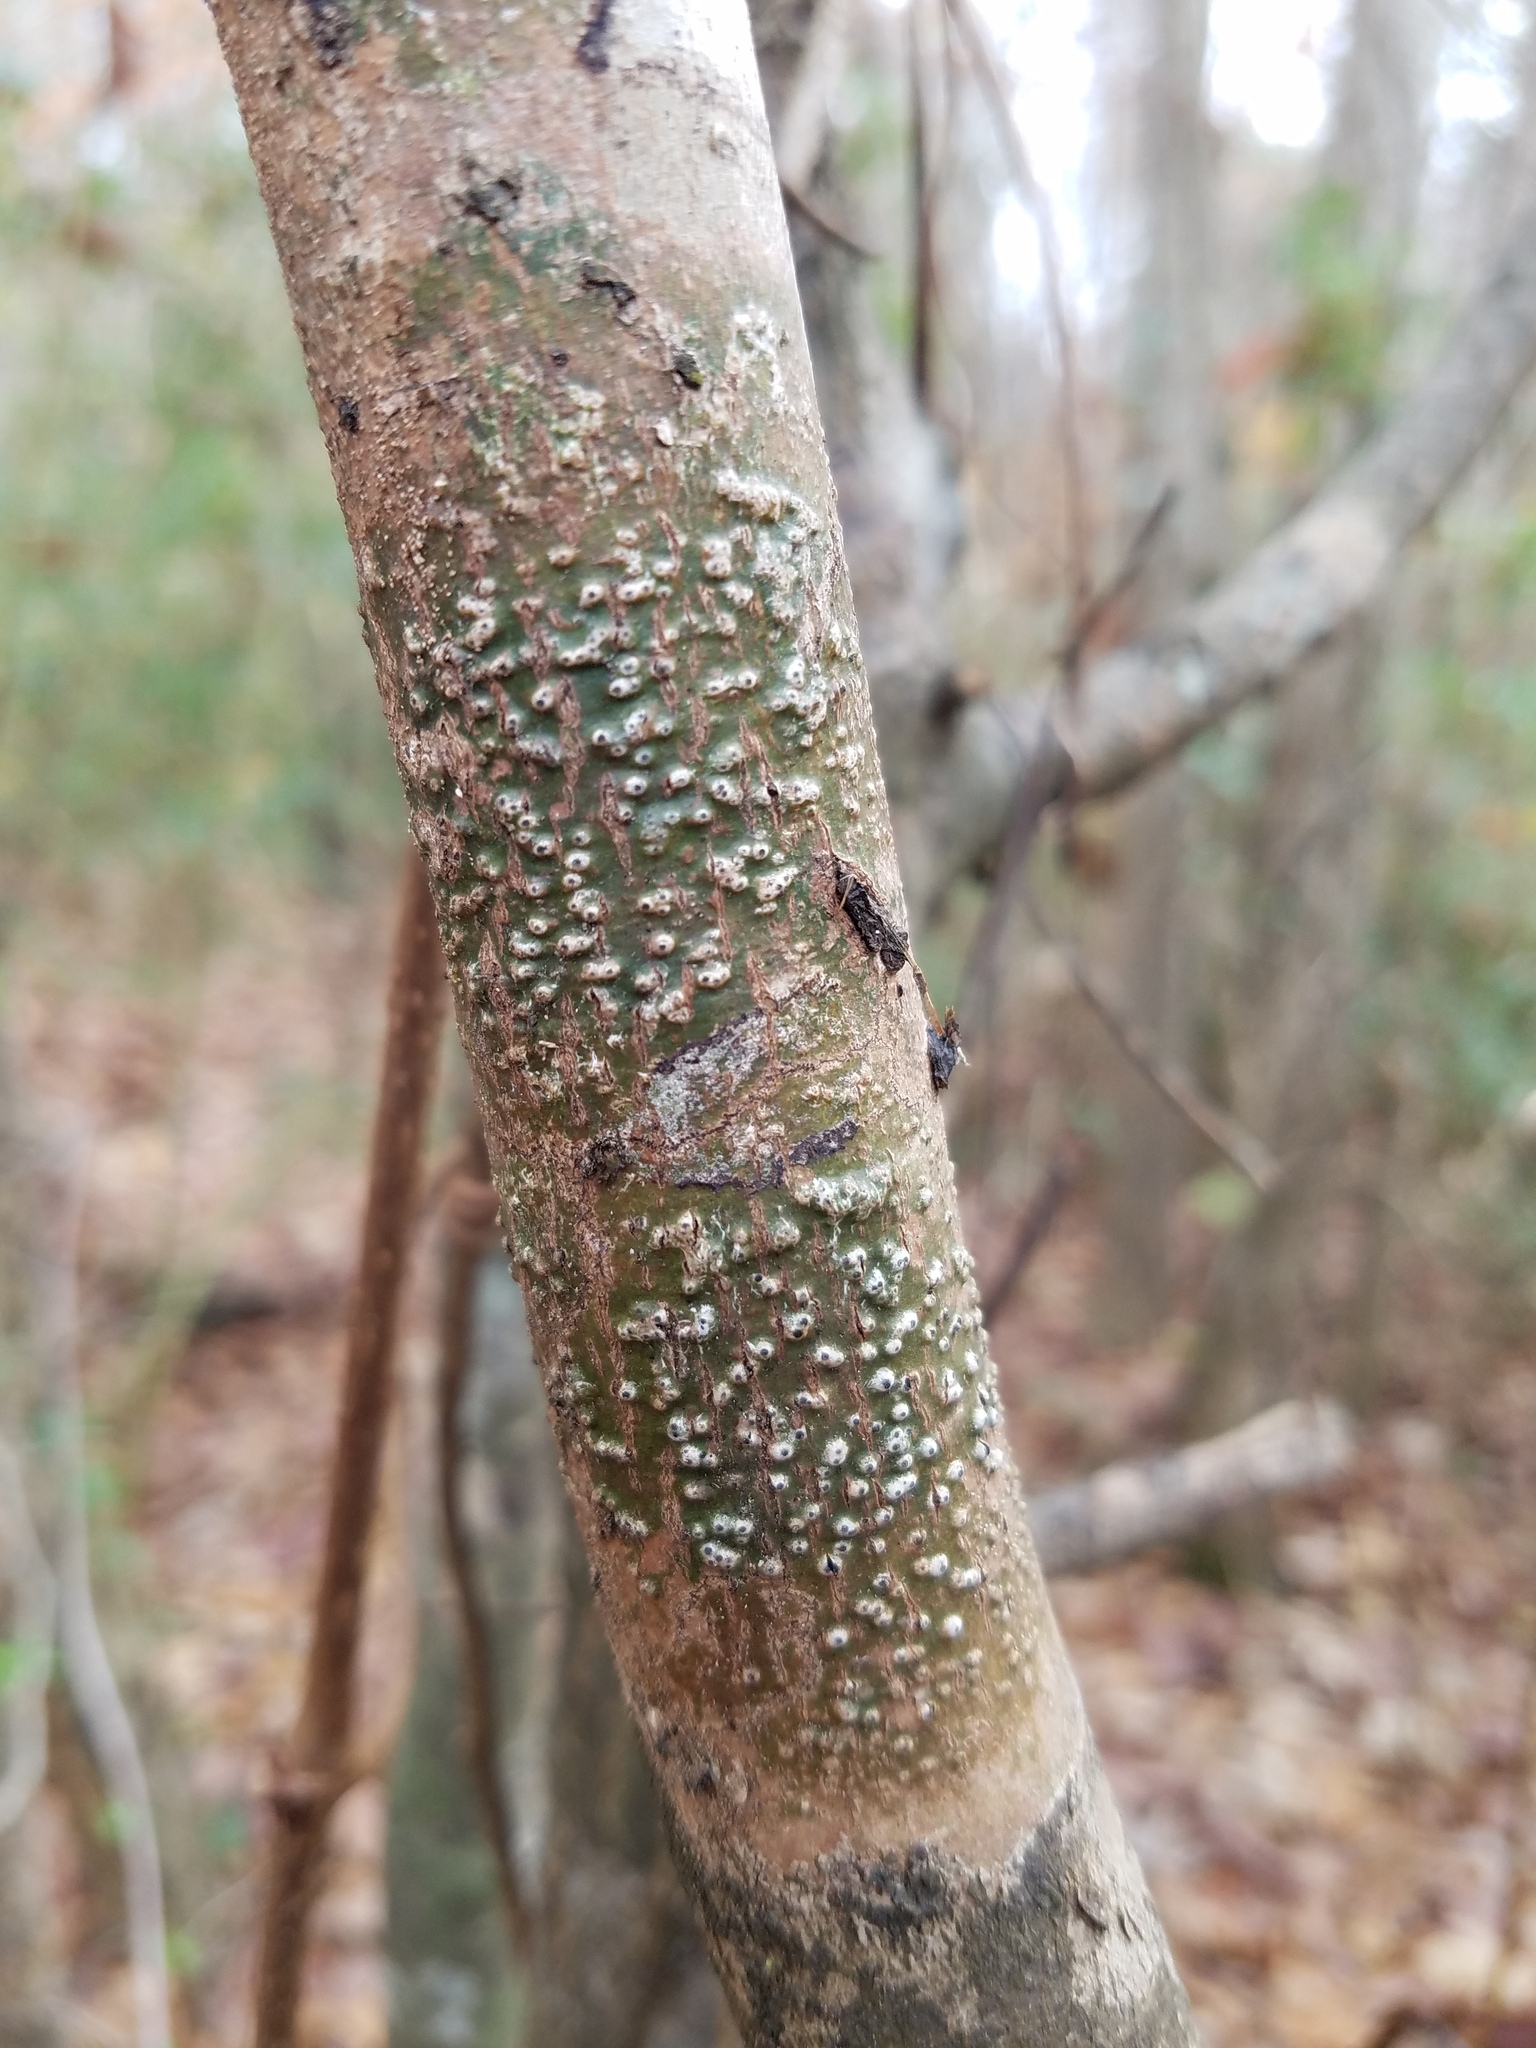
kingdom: Fungi
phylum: Ascomycota
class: Eurotiomycetes
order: Pyrenulales
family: Pyrenulaceae
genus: Pyrenula
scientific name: Pyrenula leucostoma
